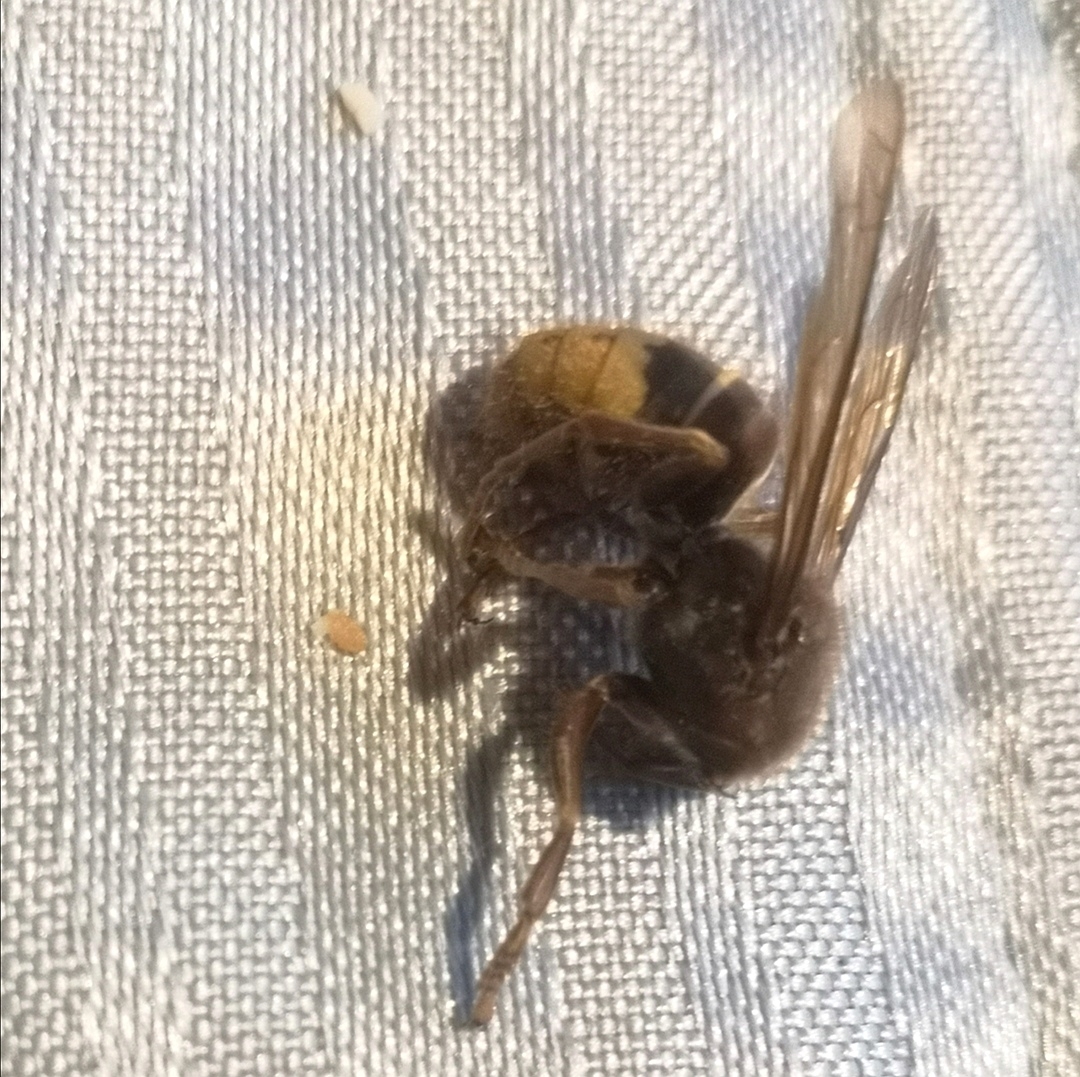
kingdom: Animalia
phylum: Arthropoda
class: Insecta
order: Hymenoptera
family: Vespidae
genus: Vespa
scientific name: Vespa crabro
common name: Hornet
